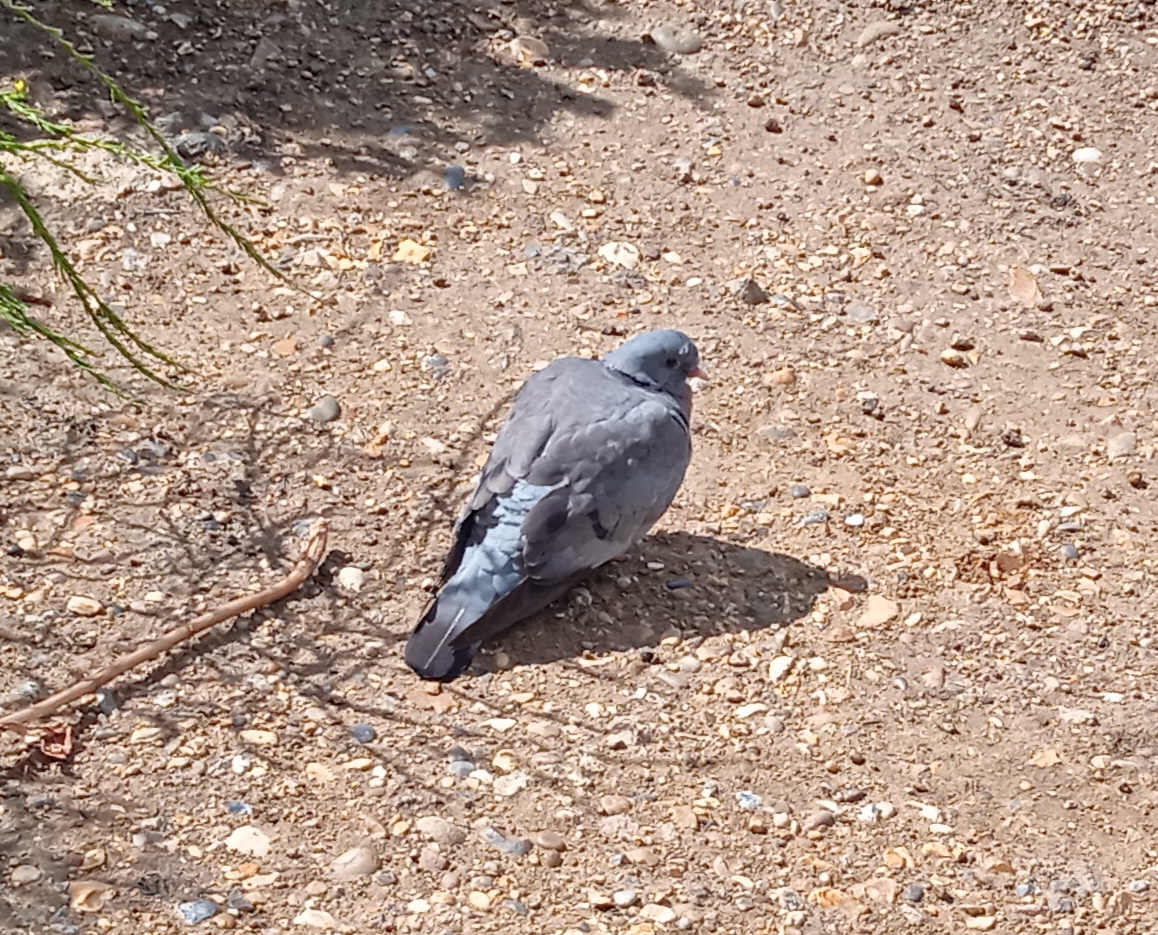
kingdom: Animalia
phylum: Chordata
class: Aves
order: Columbiformes
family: Columbidae
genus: Columba
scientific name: Columba oenas
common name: Stock dove
